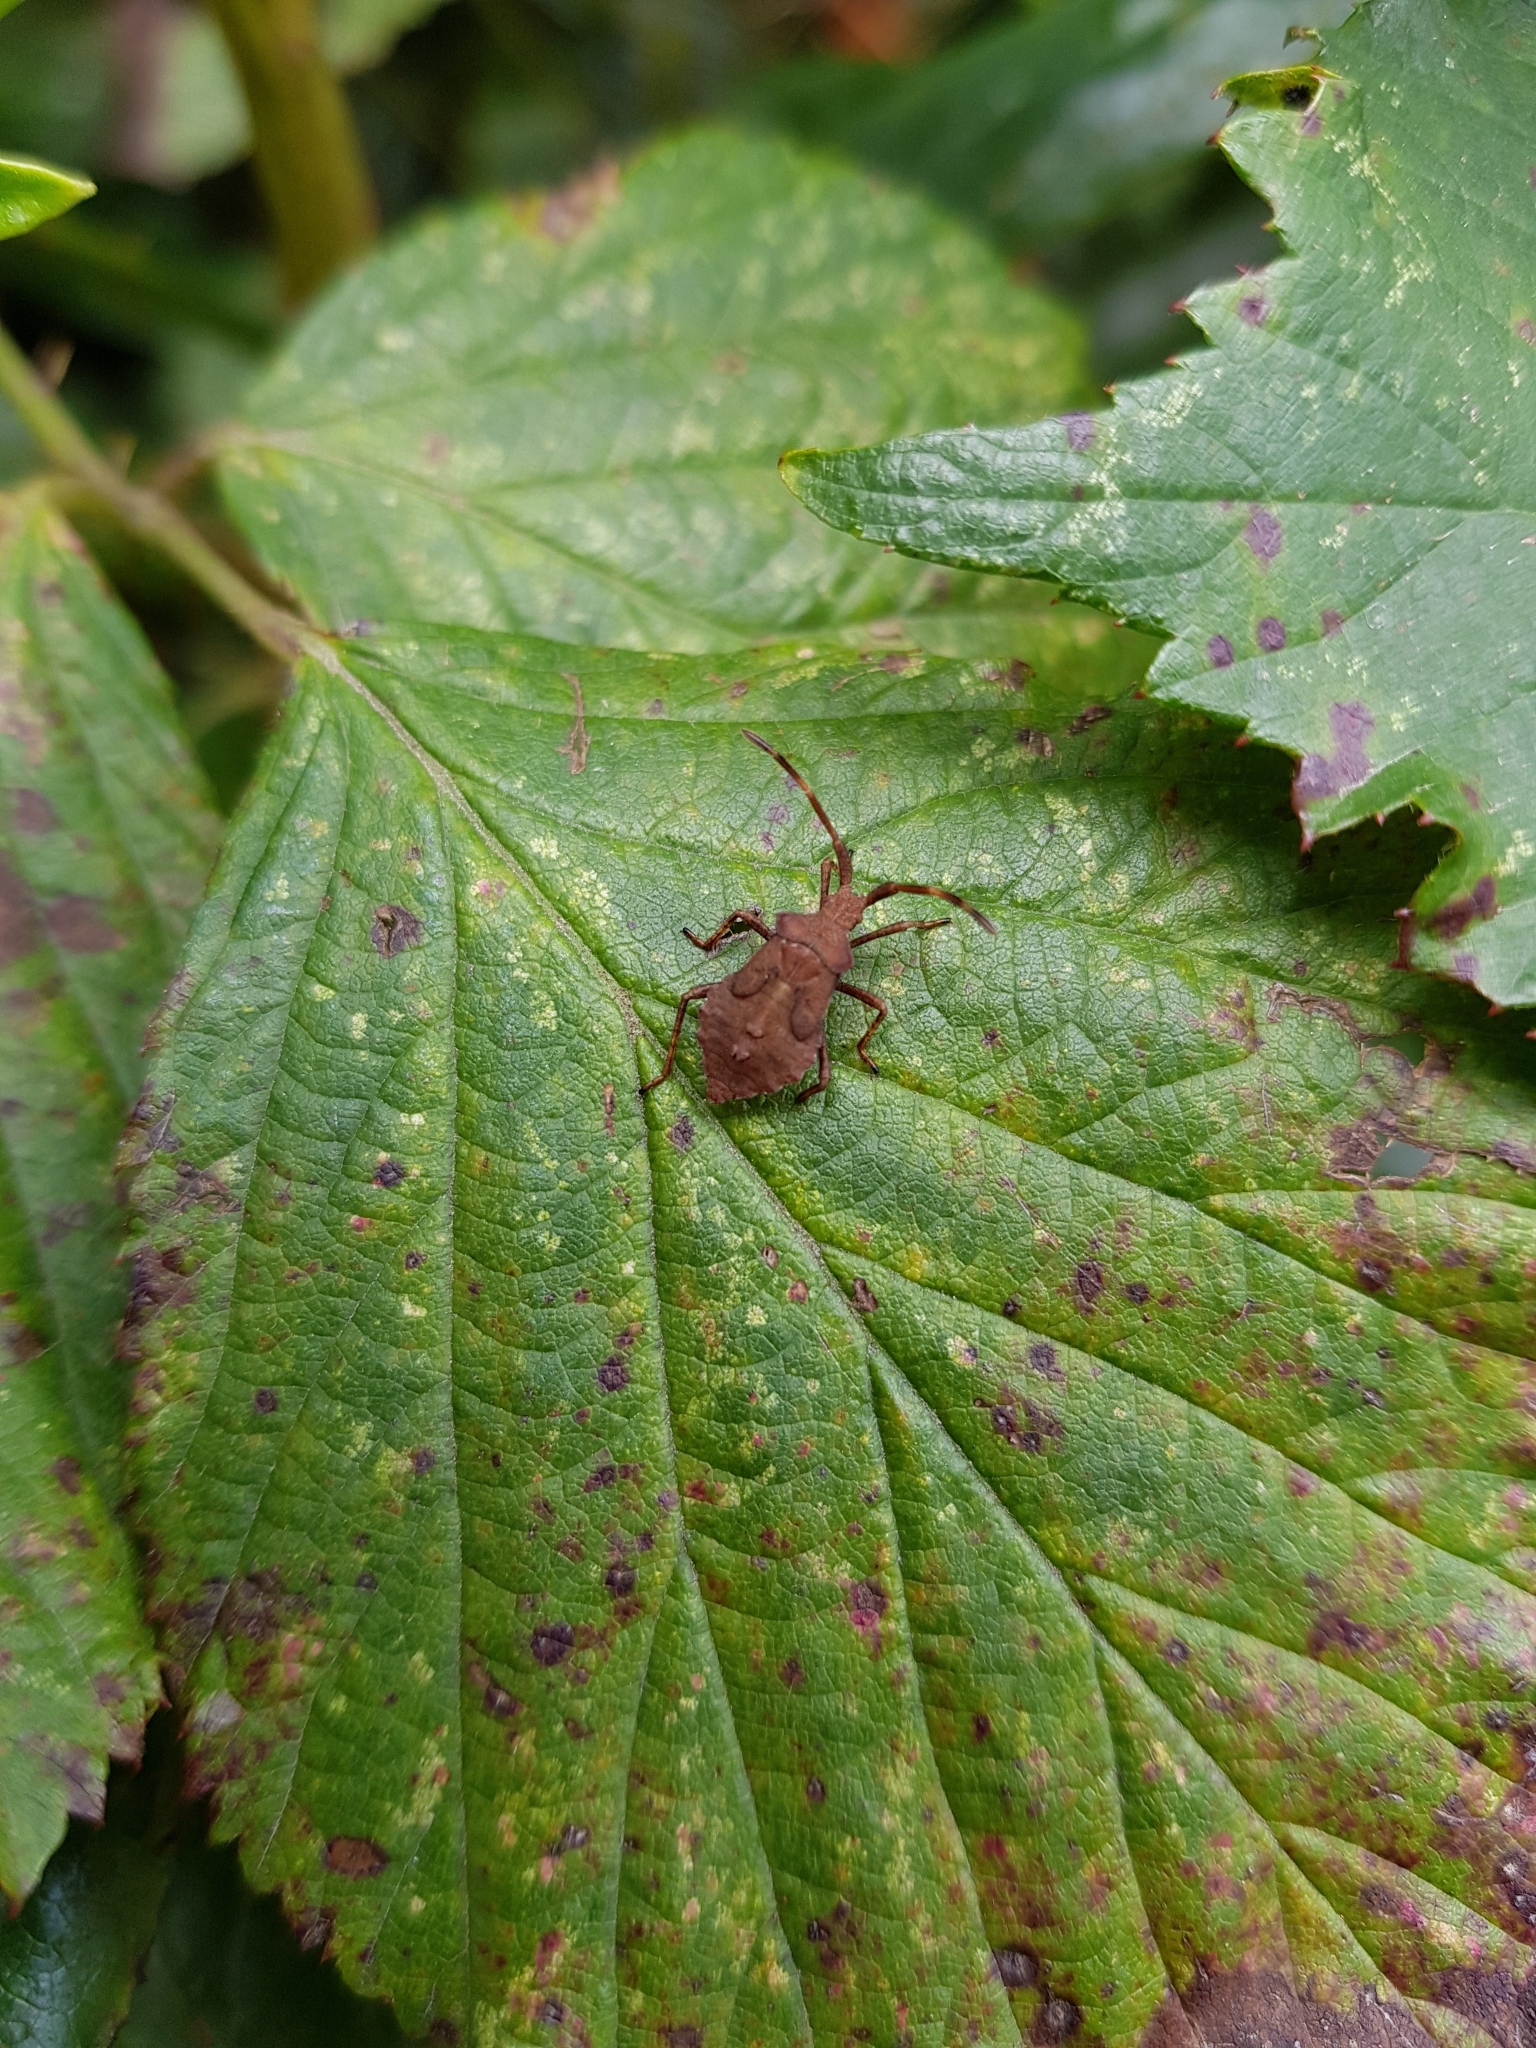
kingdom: Animalia
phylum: Arthropoda
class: Insecta
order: Hemiptera
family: Coreidae
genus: Coreus
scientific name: Coreus marginatus
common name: Dock bug
